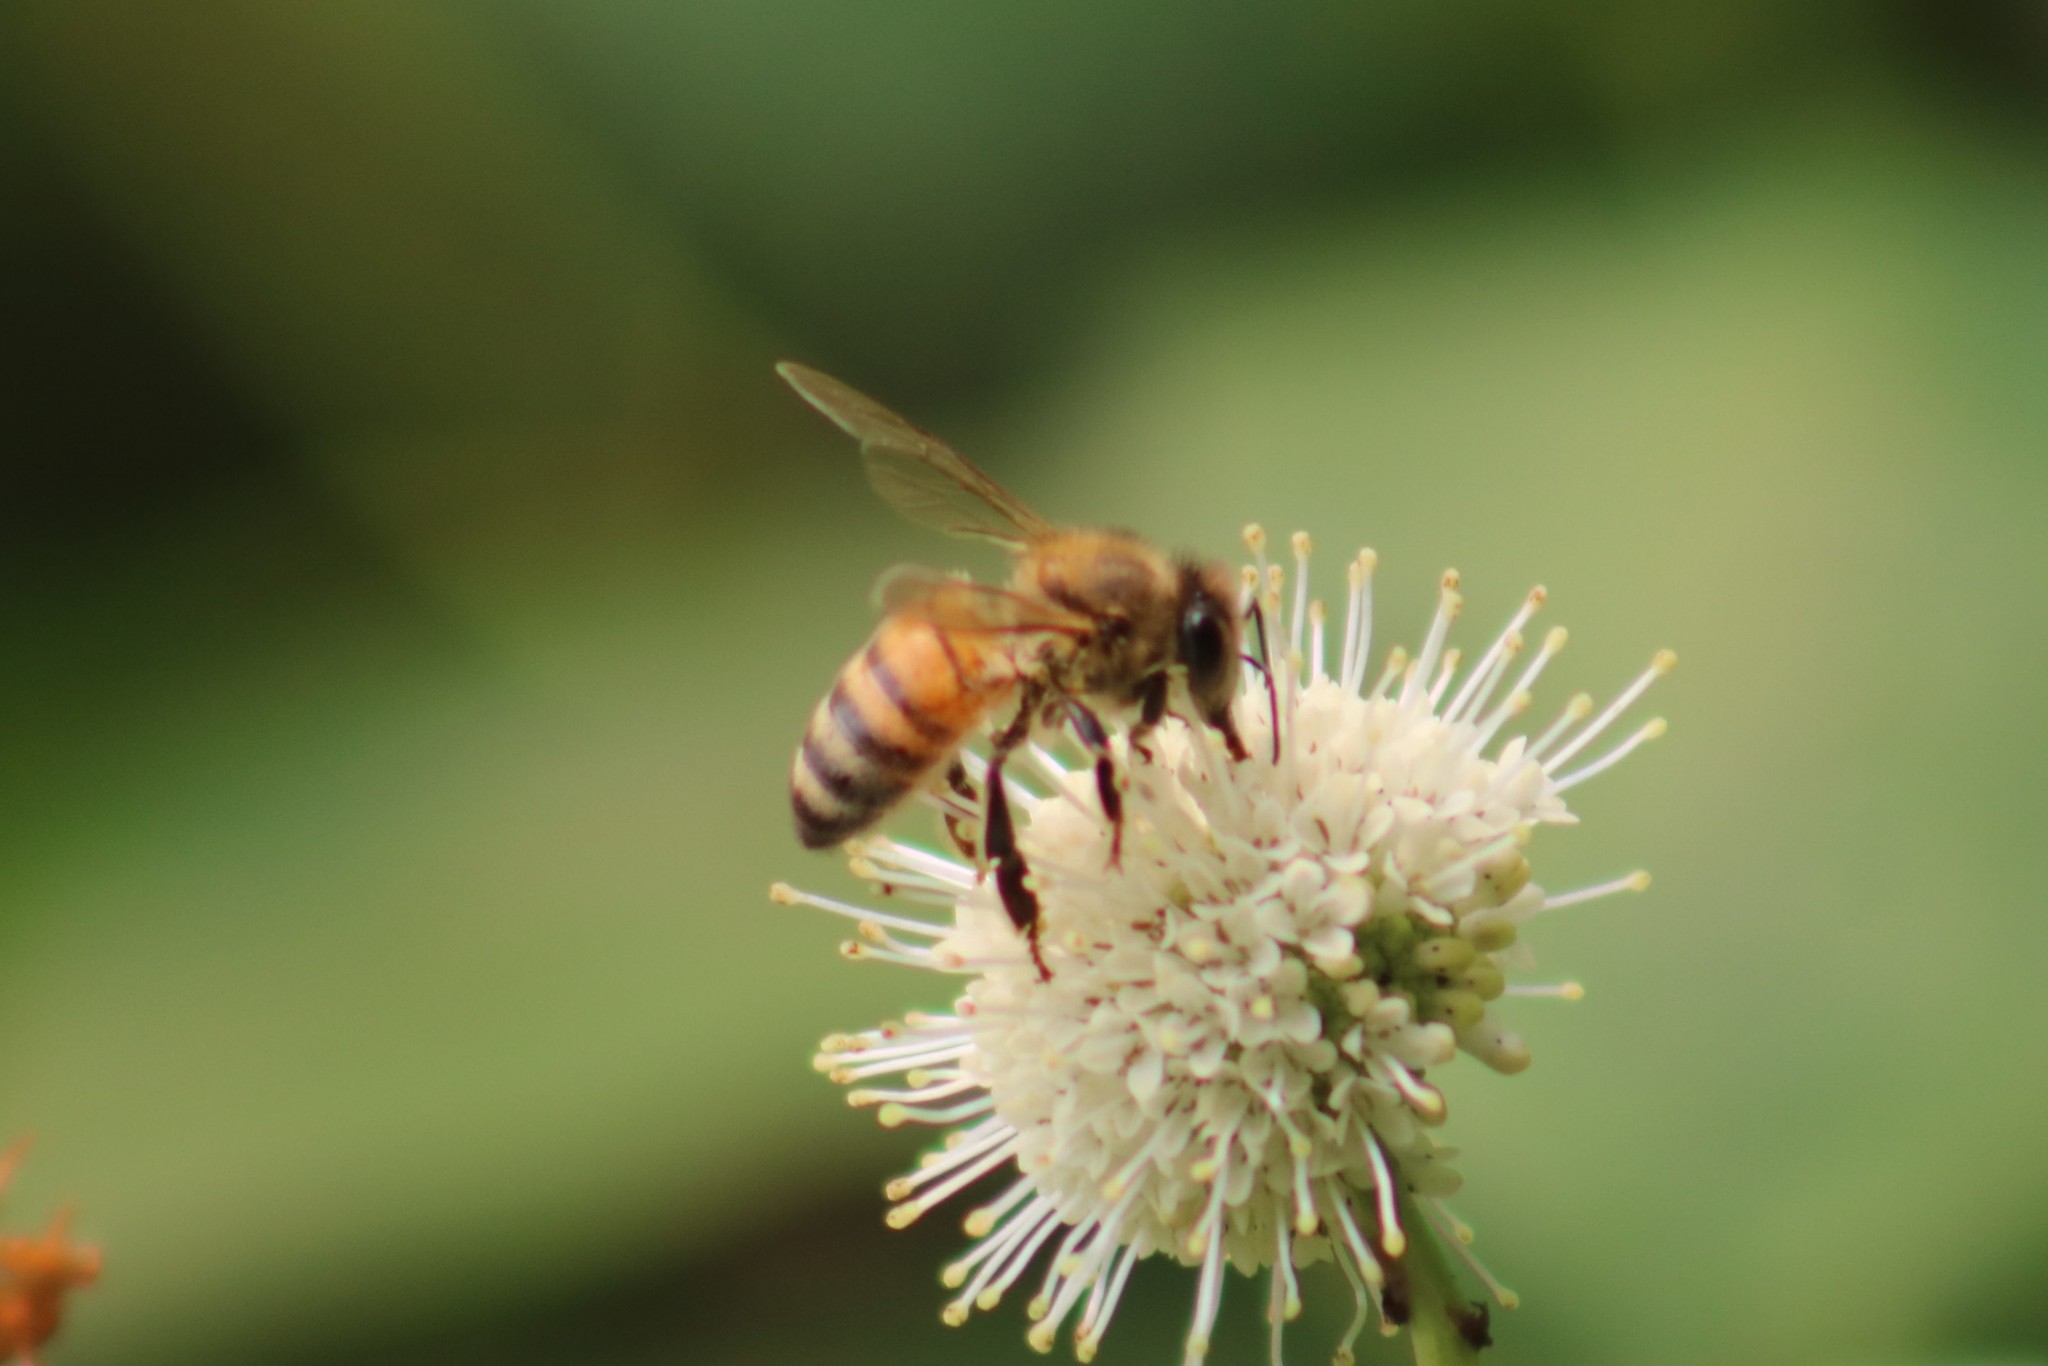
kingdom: Animalia
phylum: Arthropoda
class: Insecta
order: Hymenoptera
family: Apidae
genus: Apis
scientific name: Apis mellifera
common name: Honey bee
